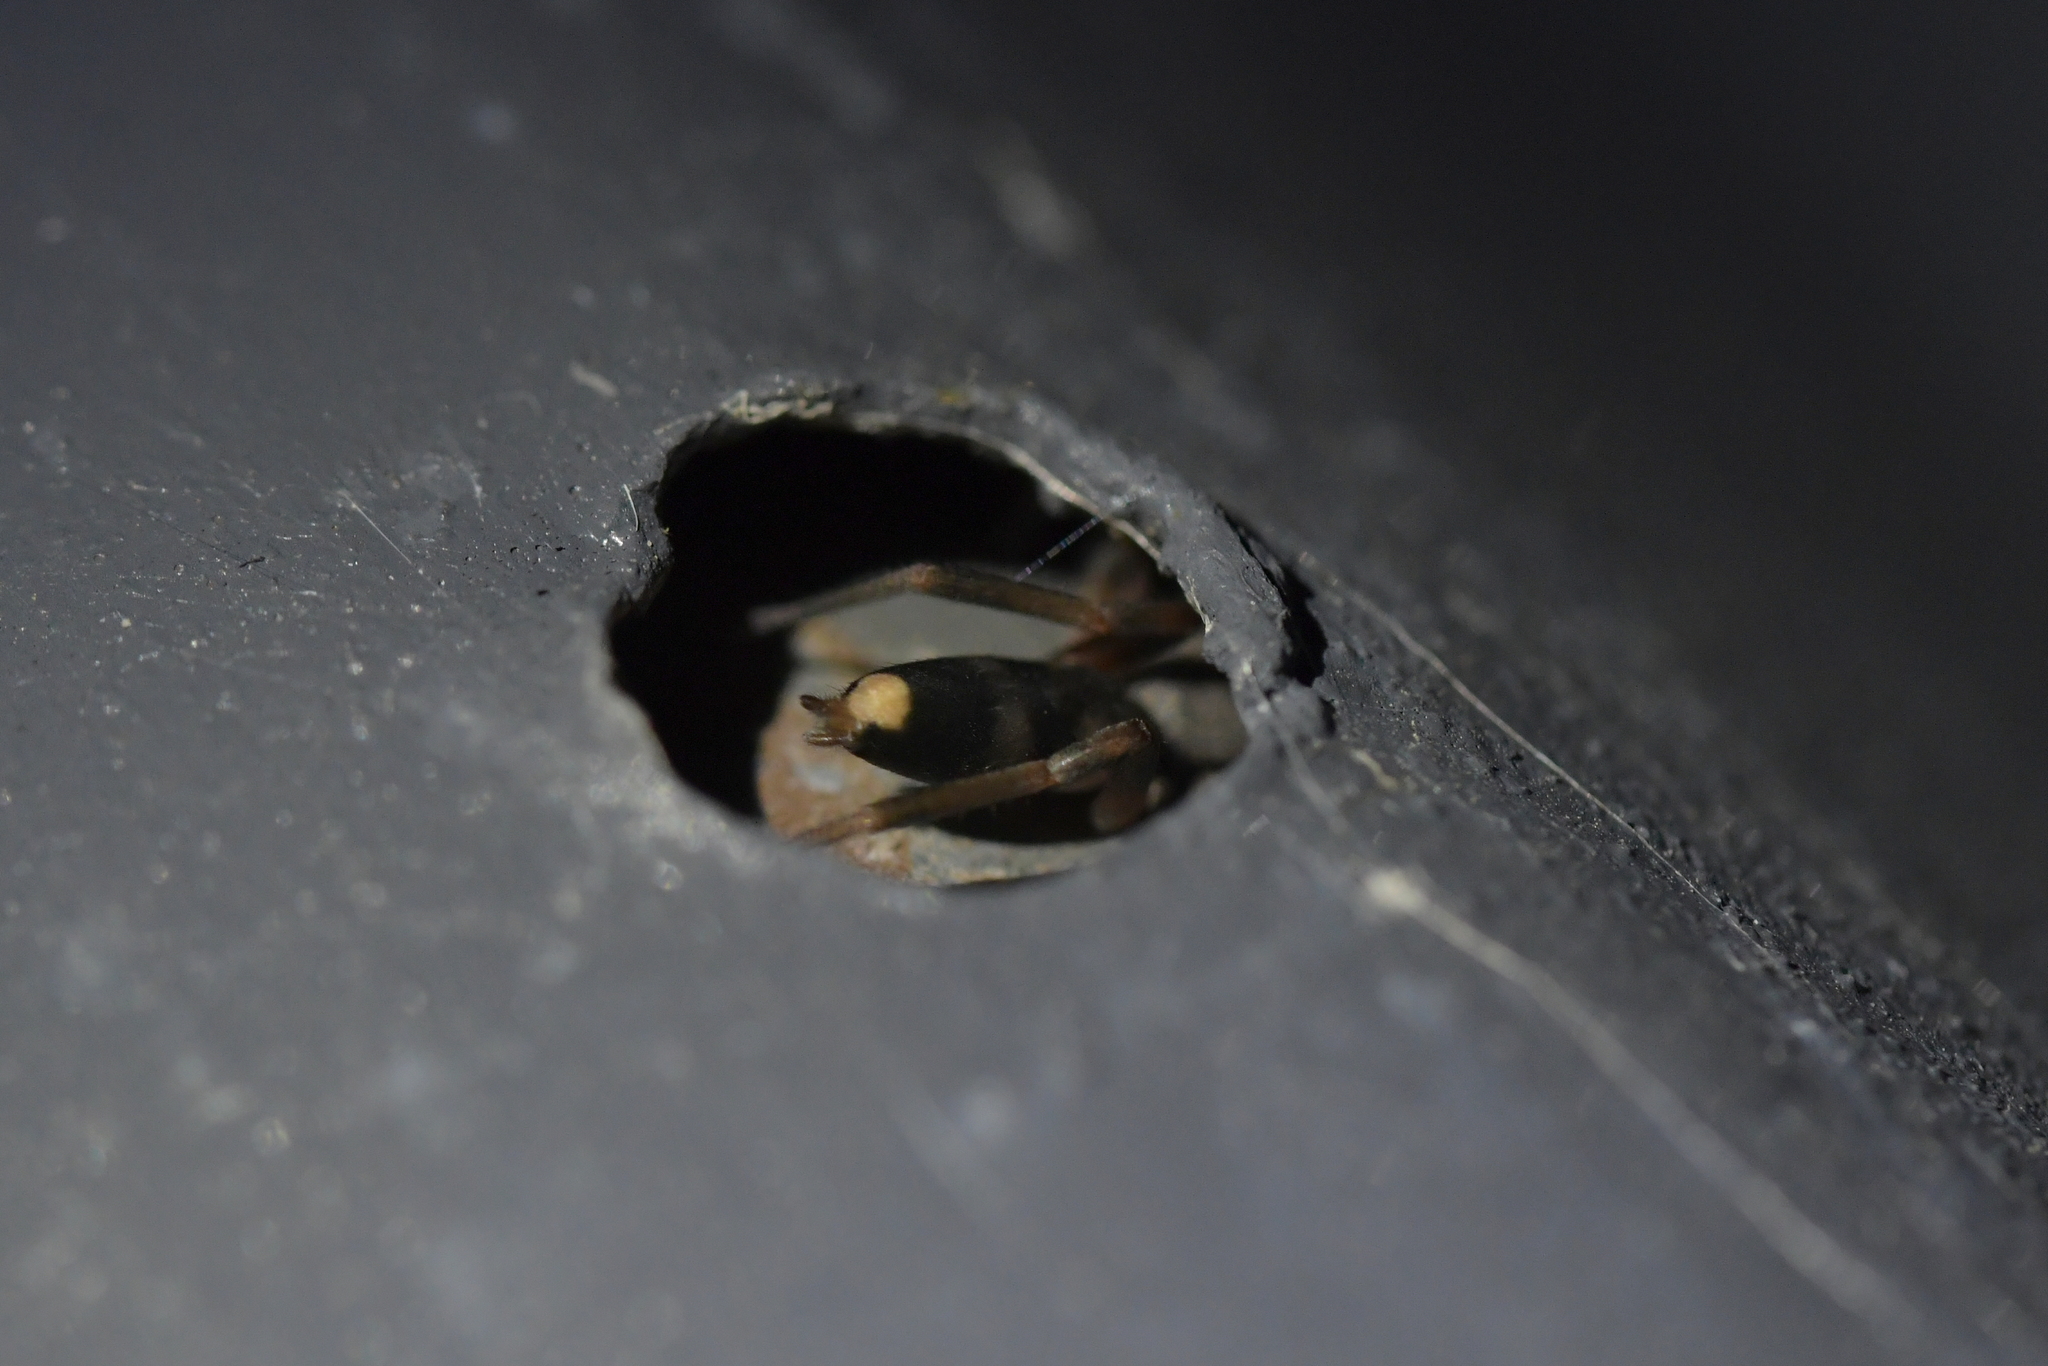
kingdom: Animalia
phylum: Arthropoda
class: Arachnida
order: Araneae
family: Lamponidae
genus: Lampona
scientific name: Lampona murina
